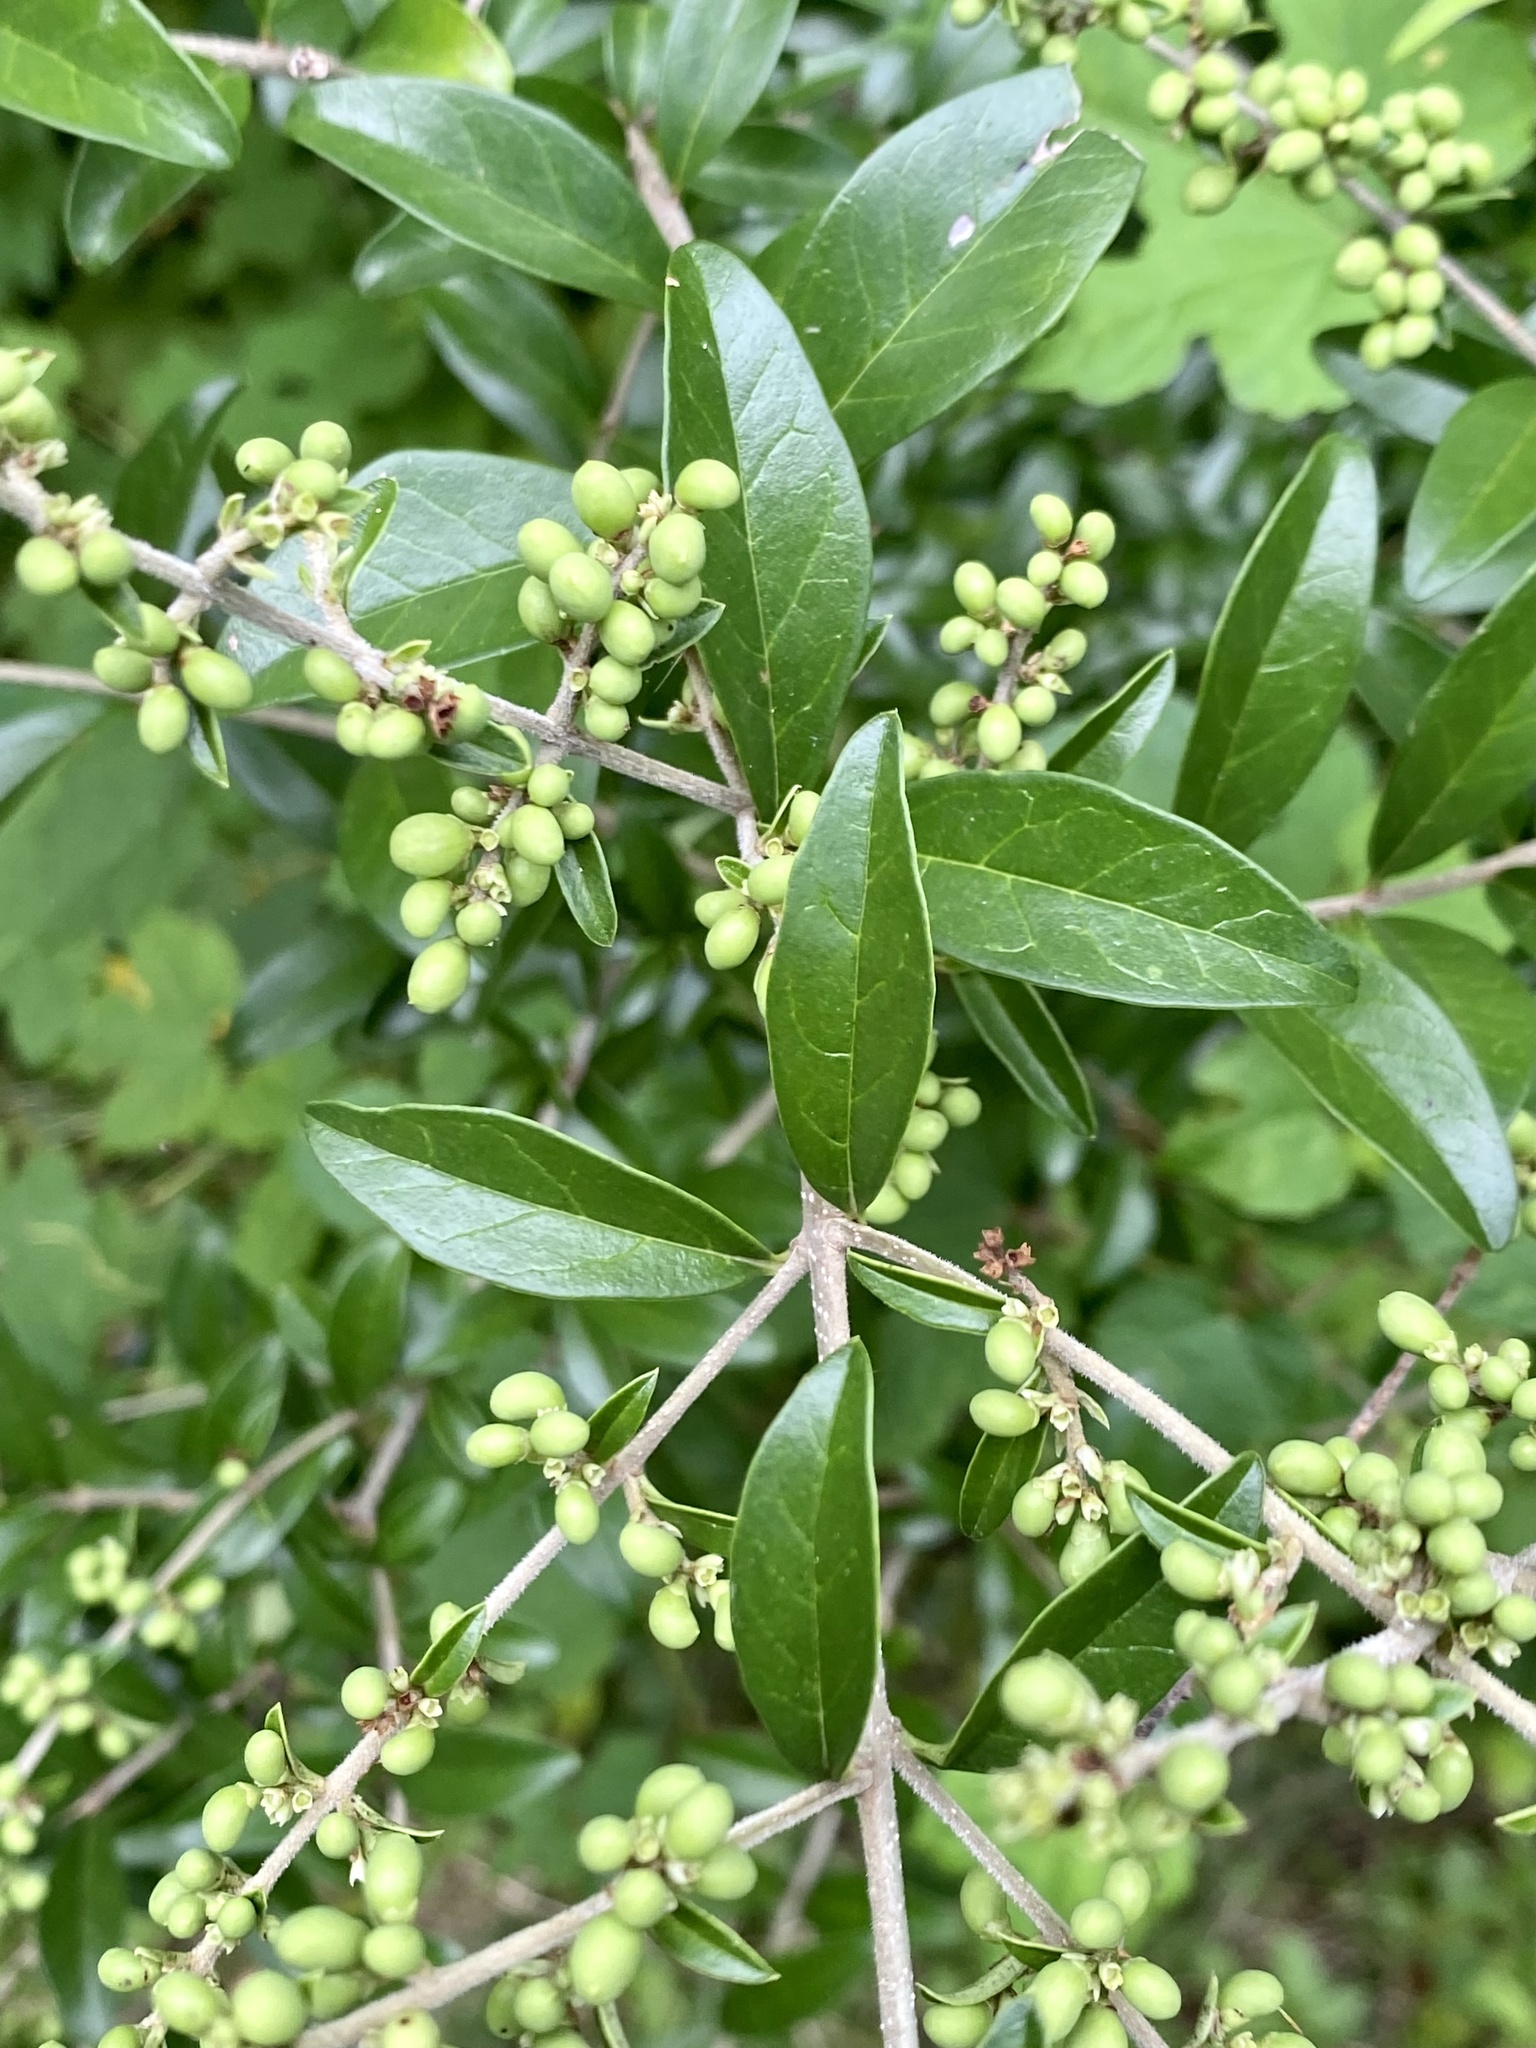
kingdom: Plantae
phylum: Tracheophyta
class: Magnoliopsida
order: Lamiales
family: Oleaceae
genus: Ligustrum
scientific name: Ligustrum sinense
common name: Chinese privet
